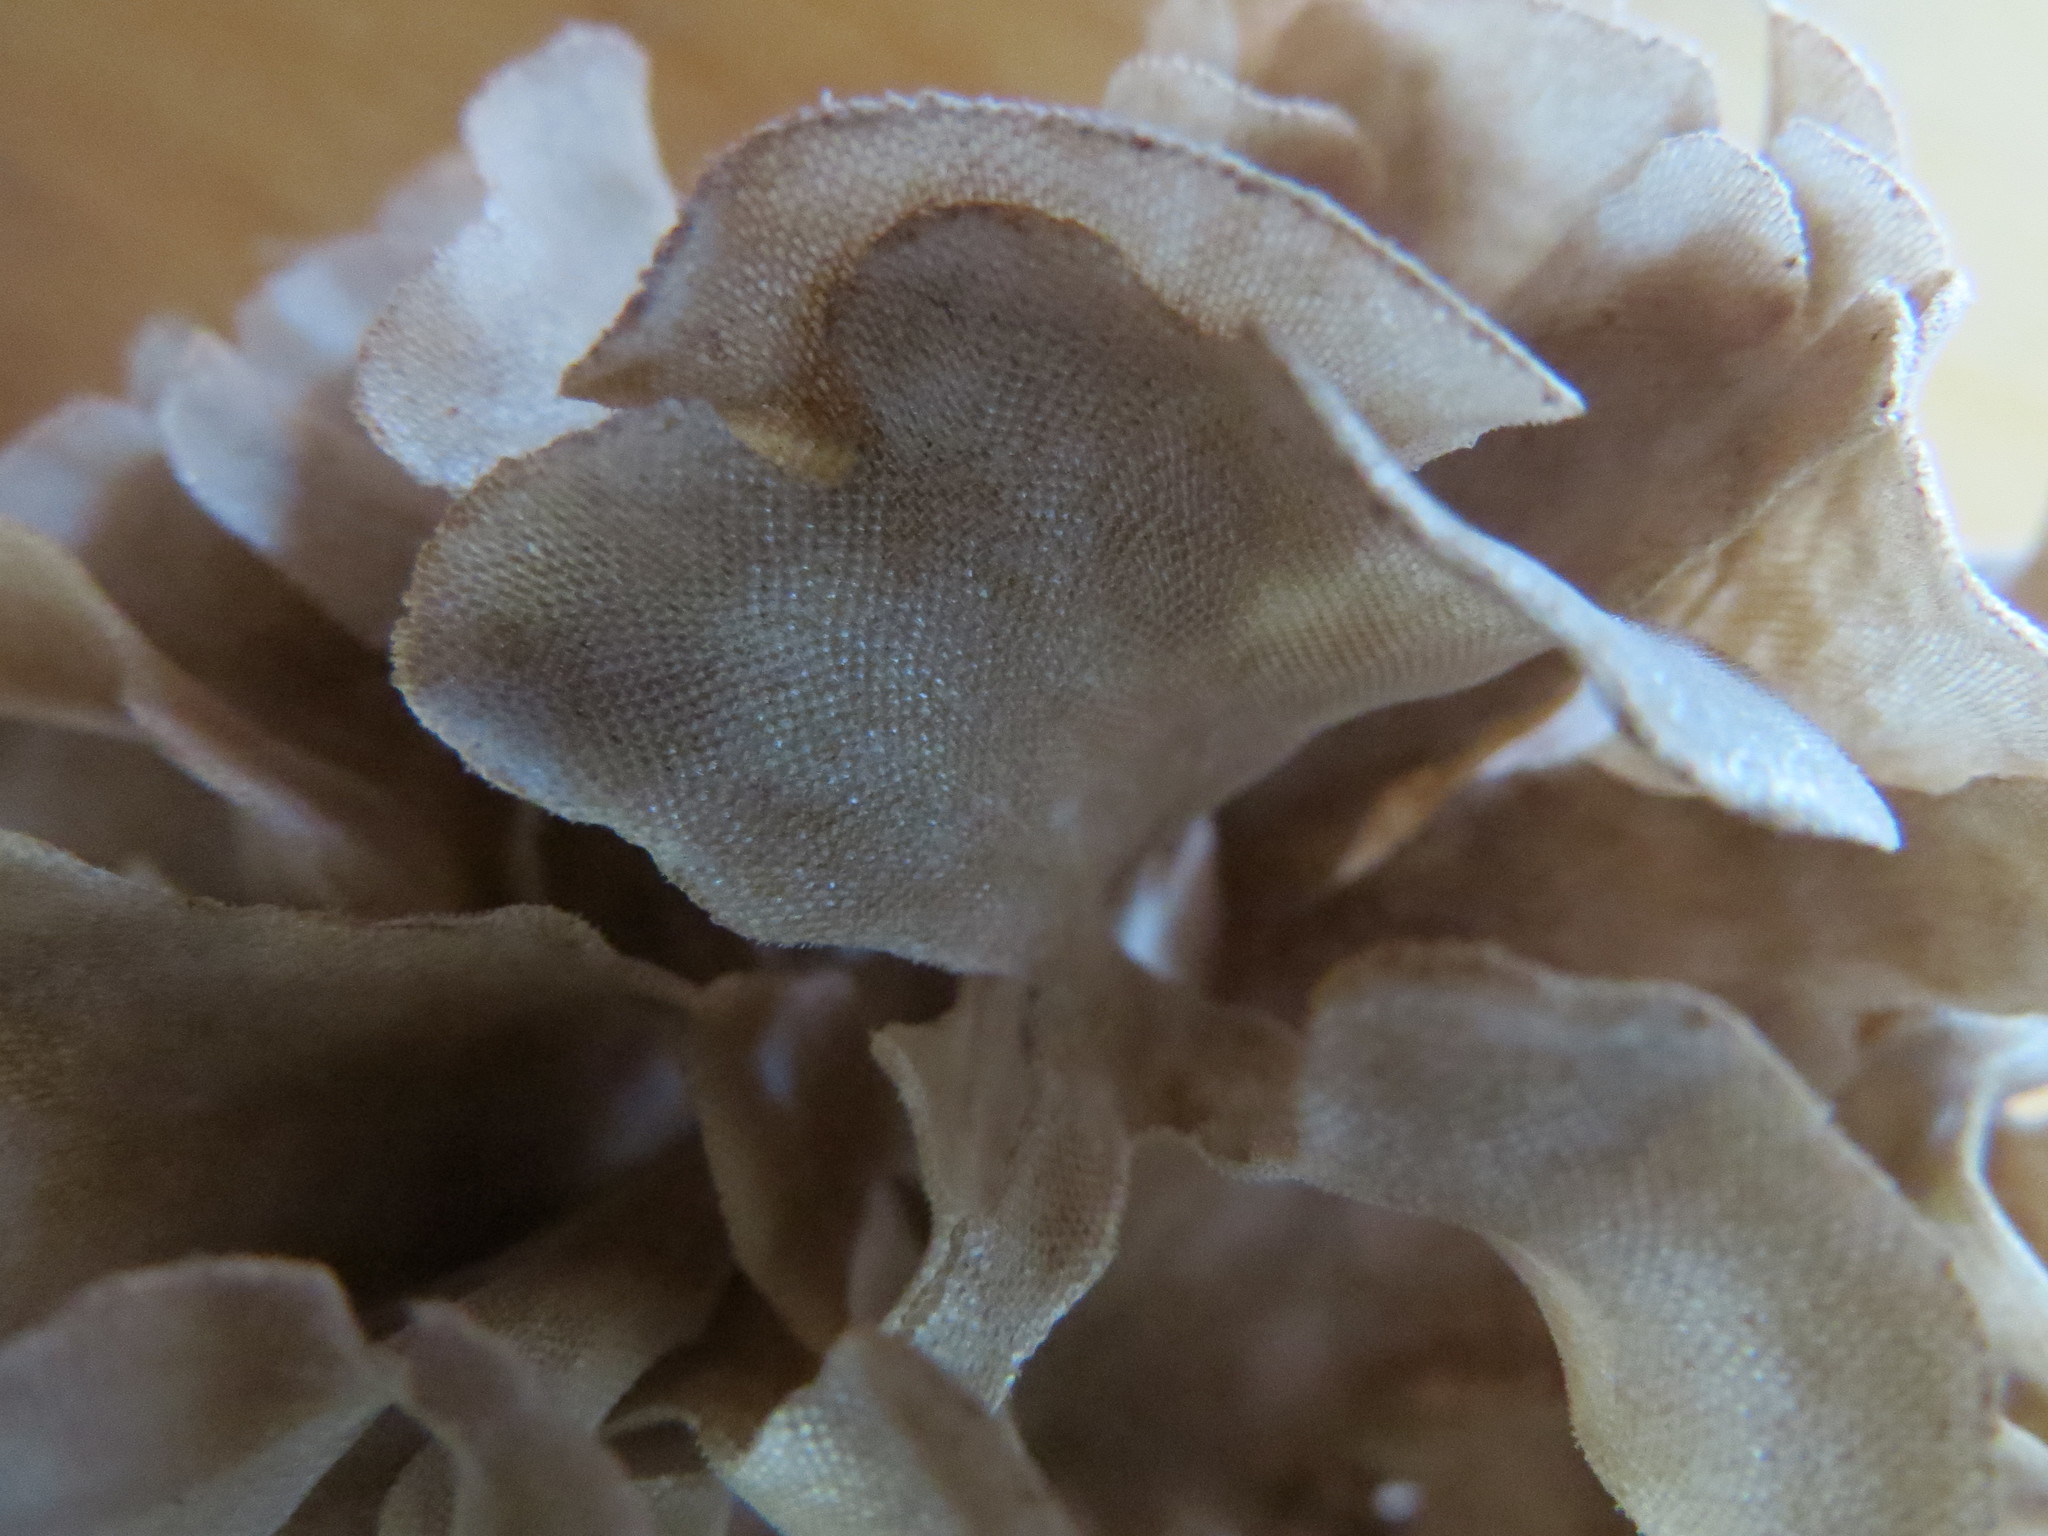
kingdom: Animalia
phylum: Bryozoa
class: Gymnolaemata
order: Cheilostomatida
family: Flustridae
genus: Flustra
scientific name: Flustra foliacea
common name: Hornwrack
